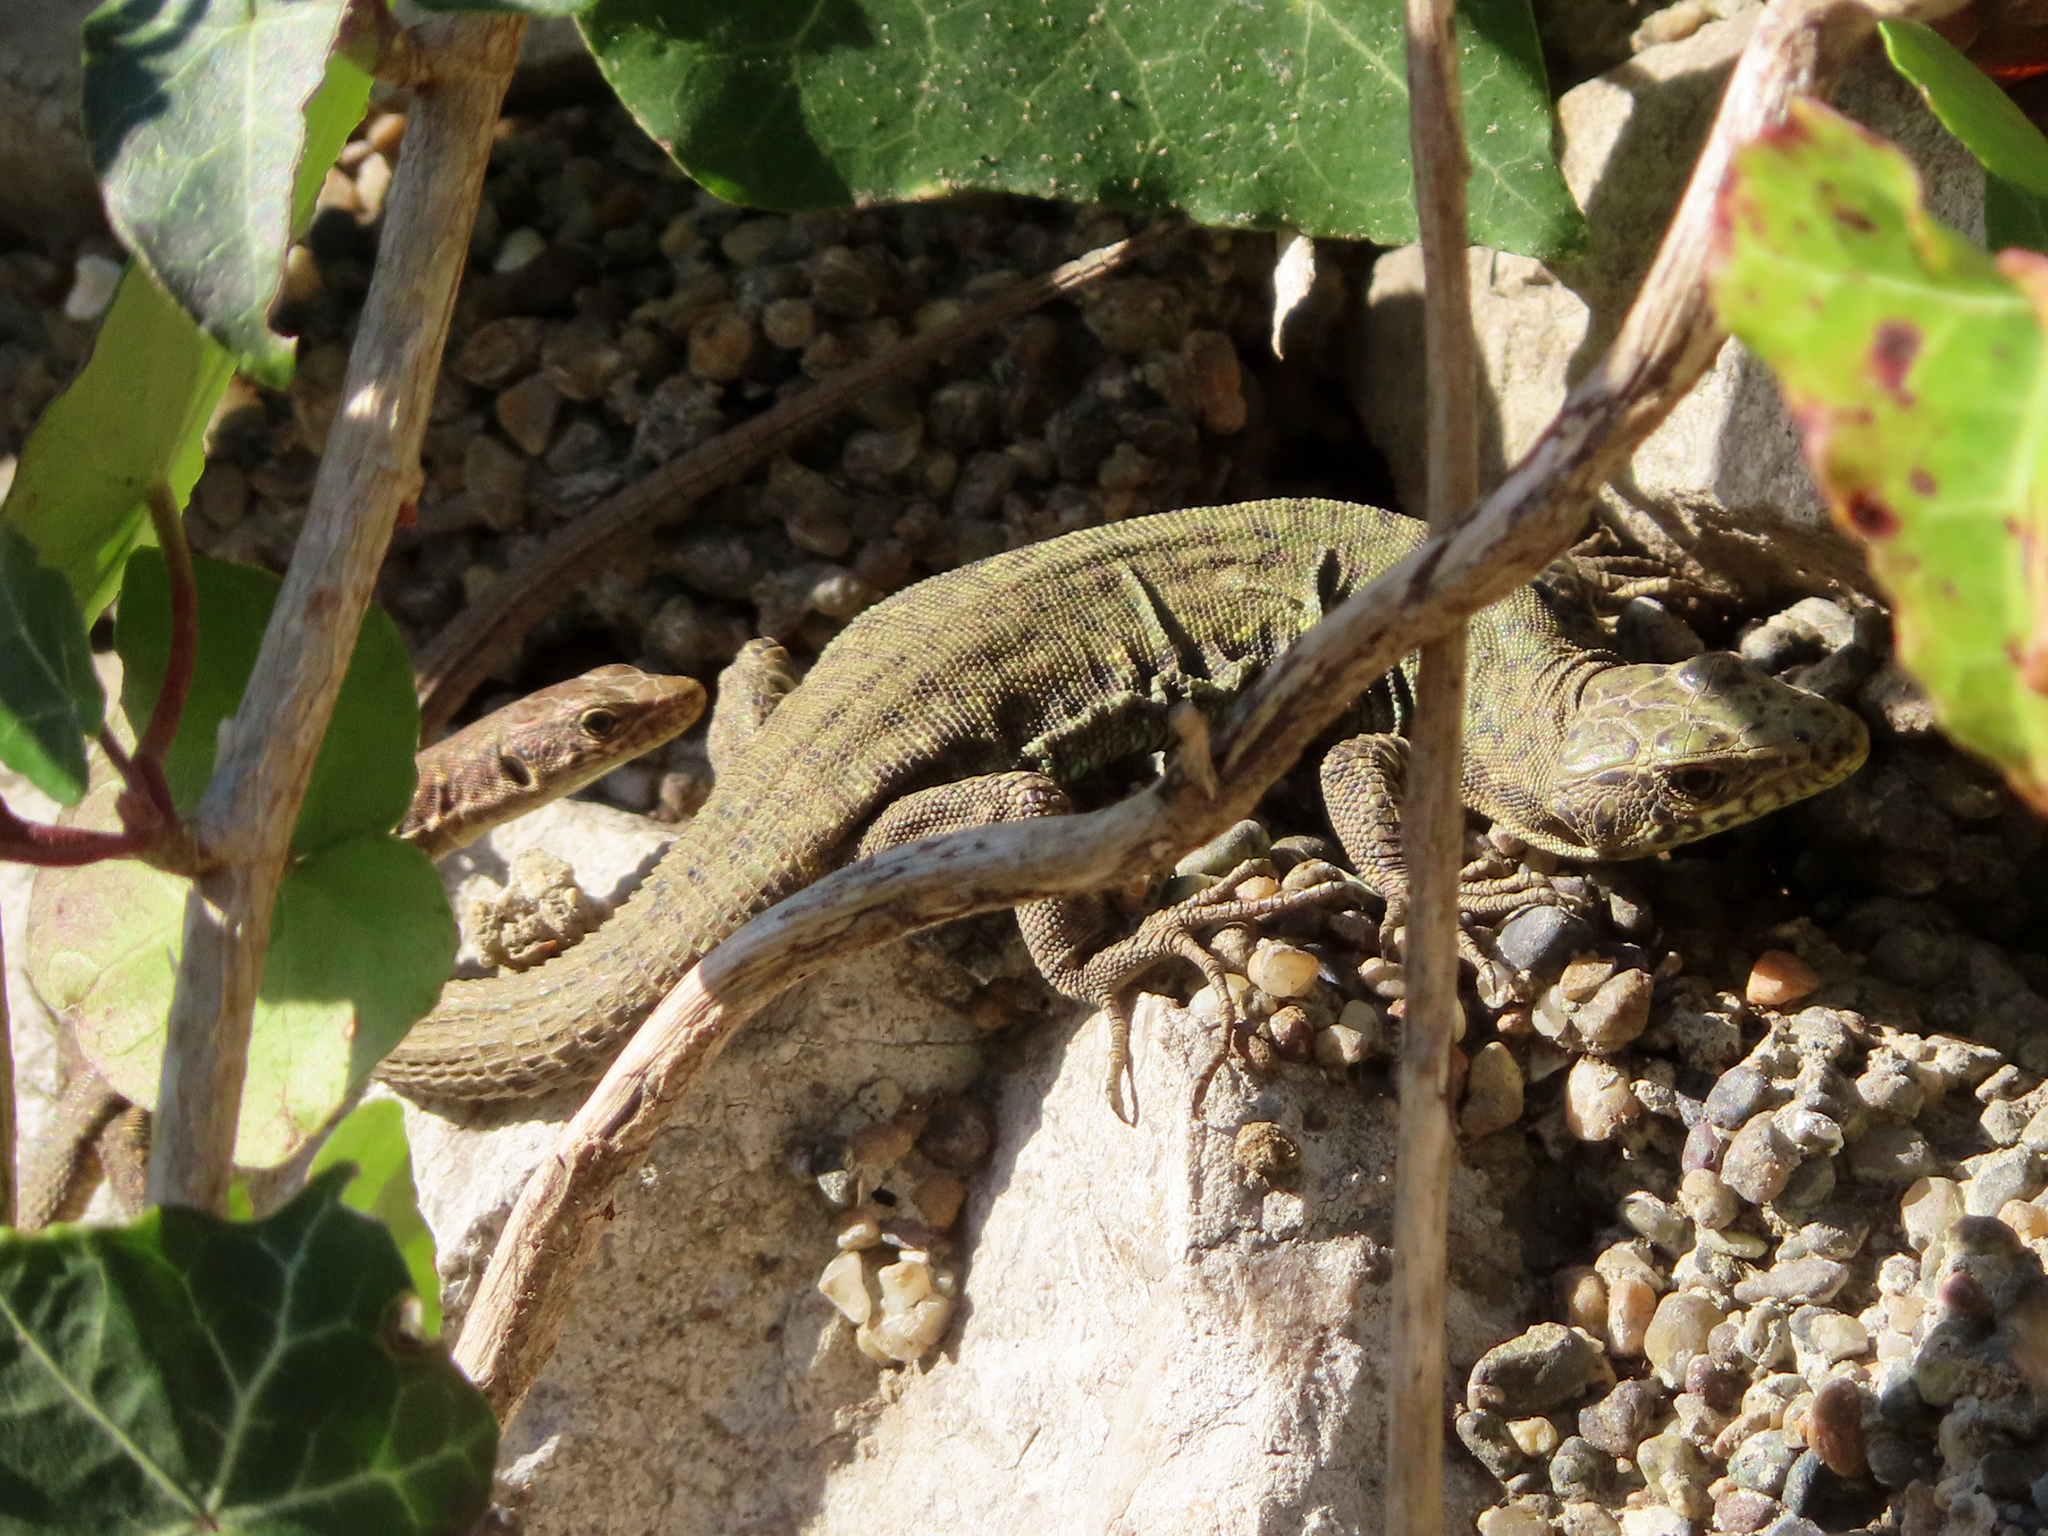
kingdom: Animalia
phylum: Chordata
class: Squamata
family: Lacertidae
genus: Darevskia
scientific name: Darevskia bithynica
